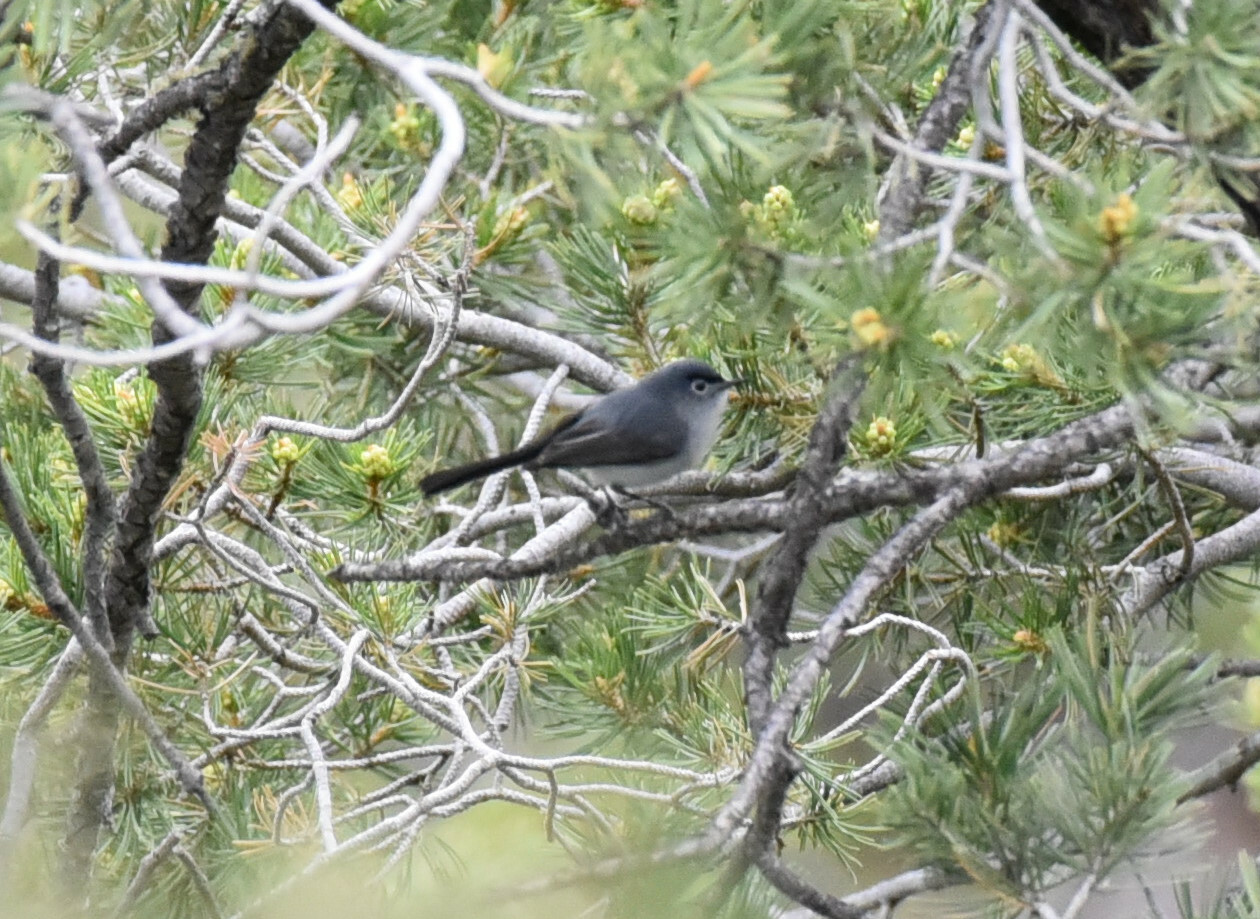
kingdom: Animalia
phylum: Chordata
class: Aves
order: Passeriformes
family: Polioptilidae
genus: Polioptila
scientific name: Polioptila caerulea
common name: Blue-gray gnatcatcher
